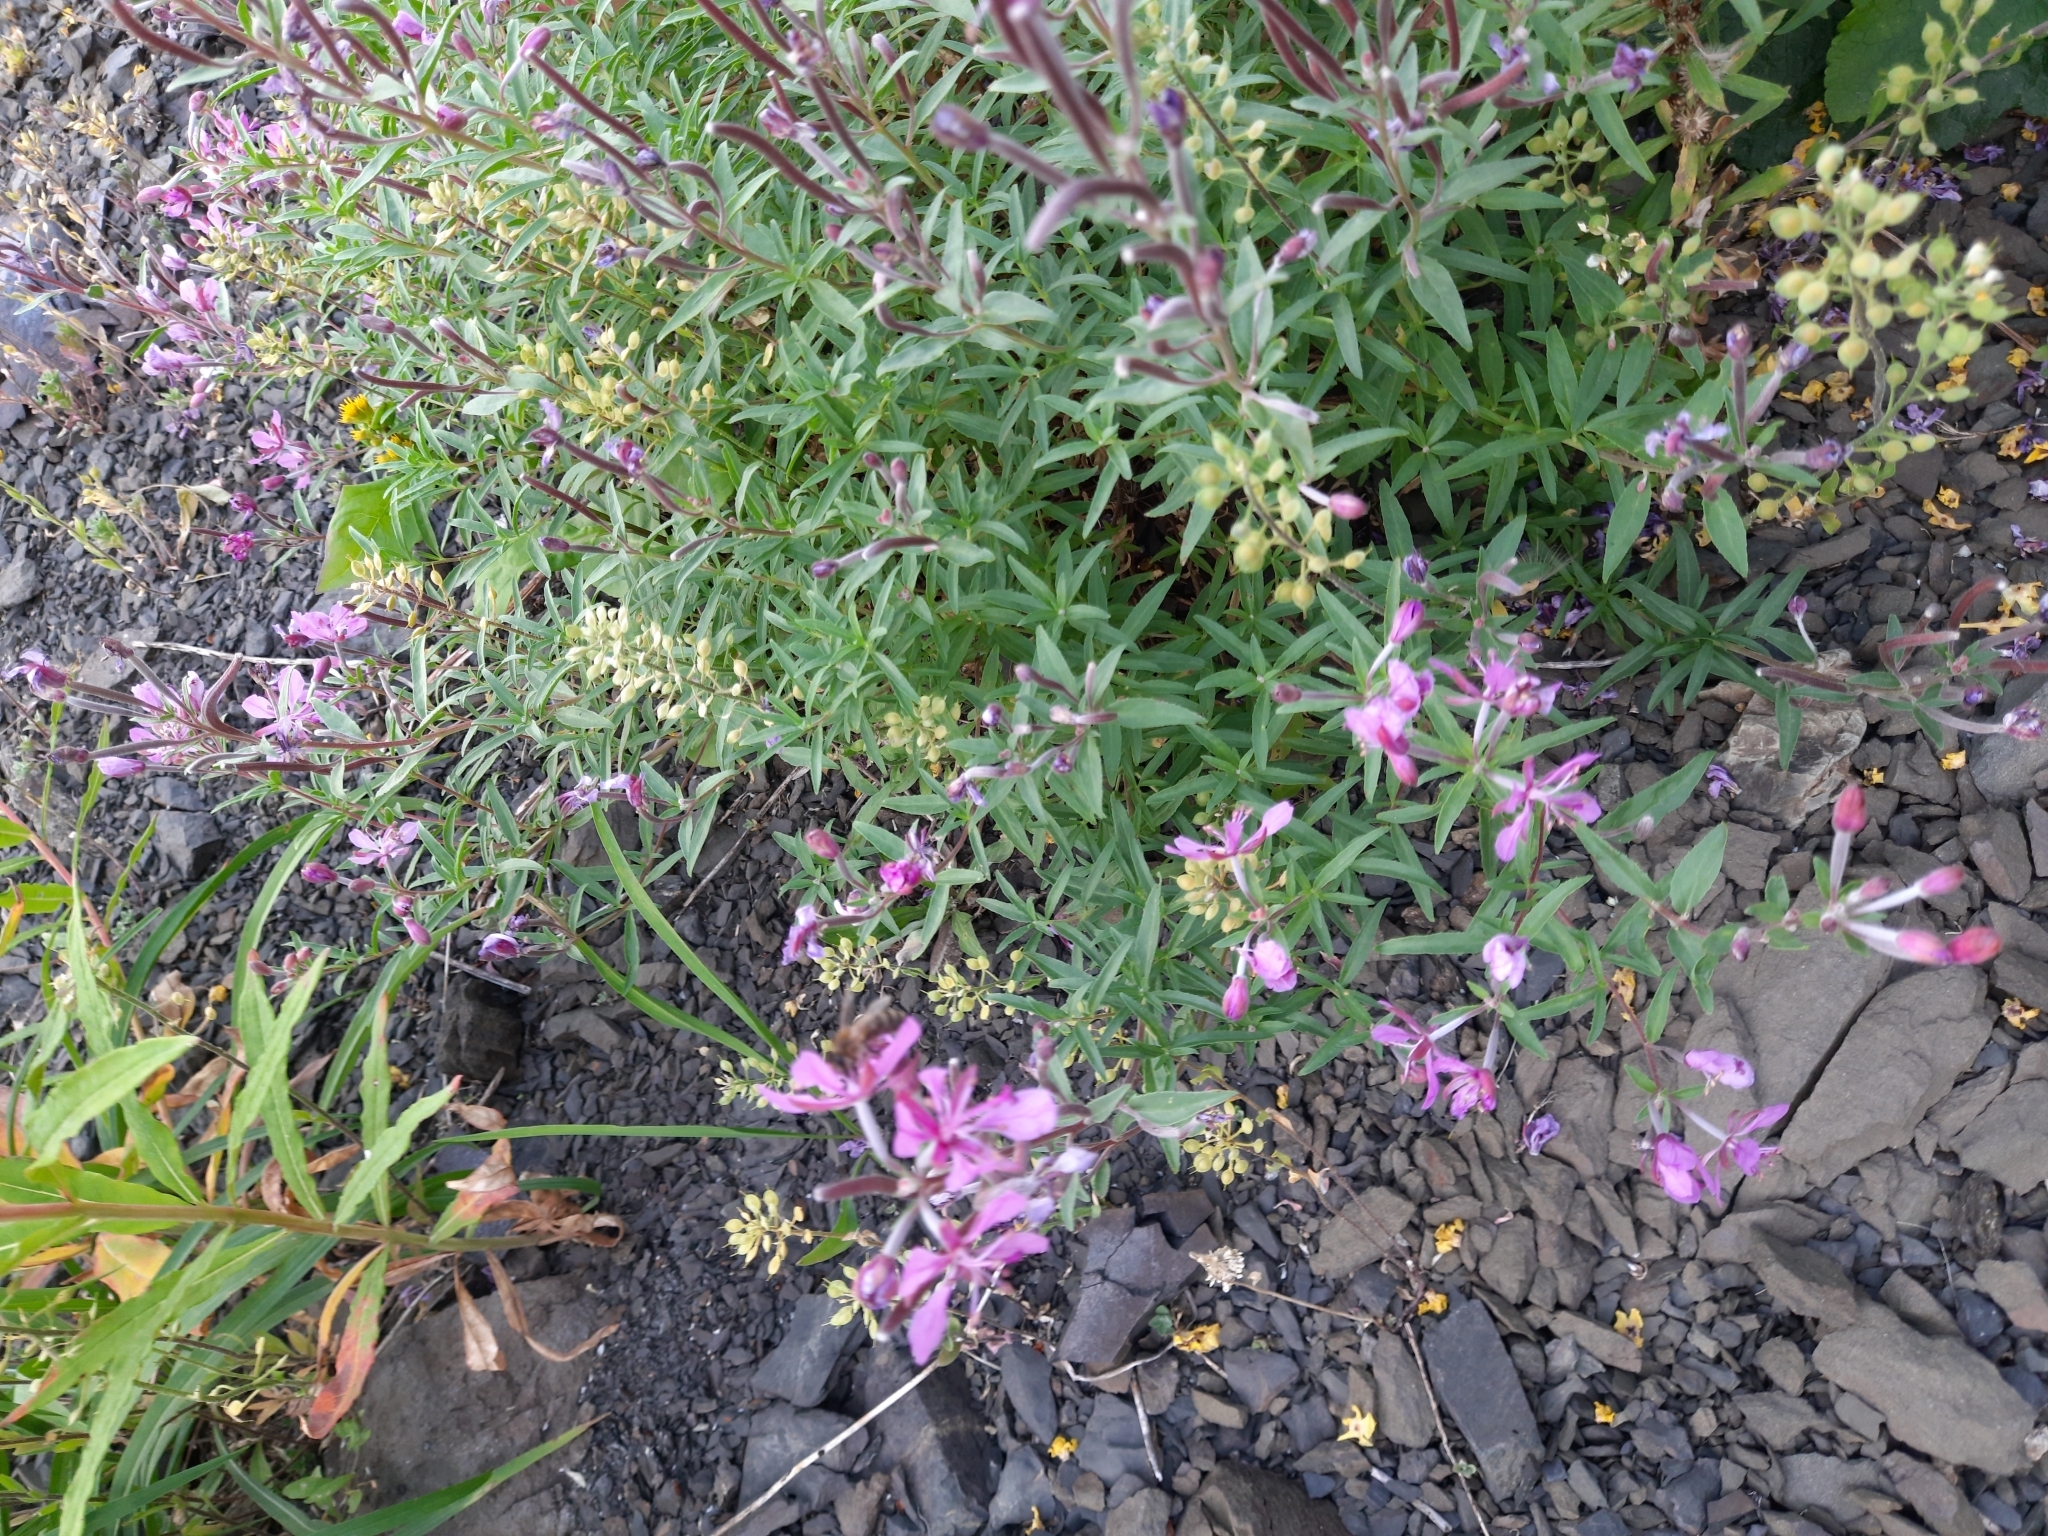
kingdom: Plantae
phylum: Tracheophyta
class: Magnoliopsida
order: Myrtales
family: Onagraceae
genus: Chamaenerion
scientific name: Chamaenerion colchicum
